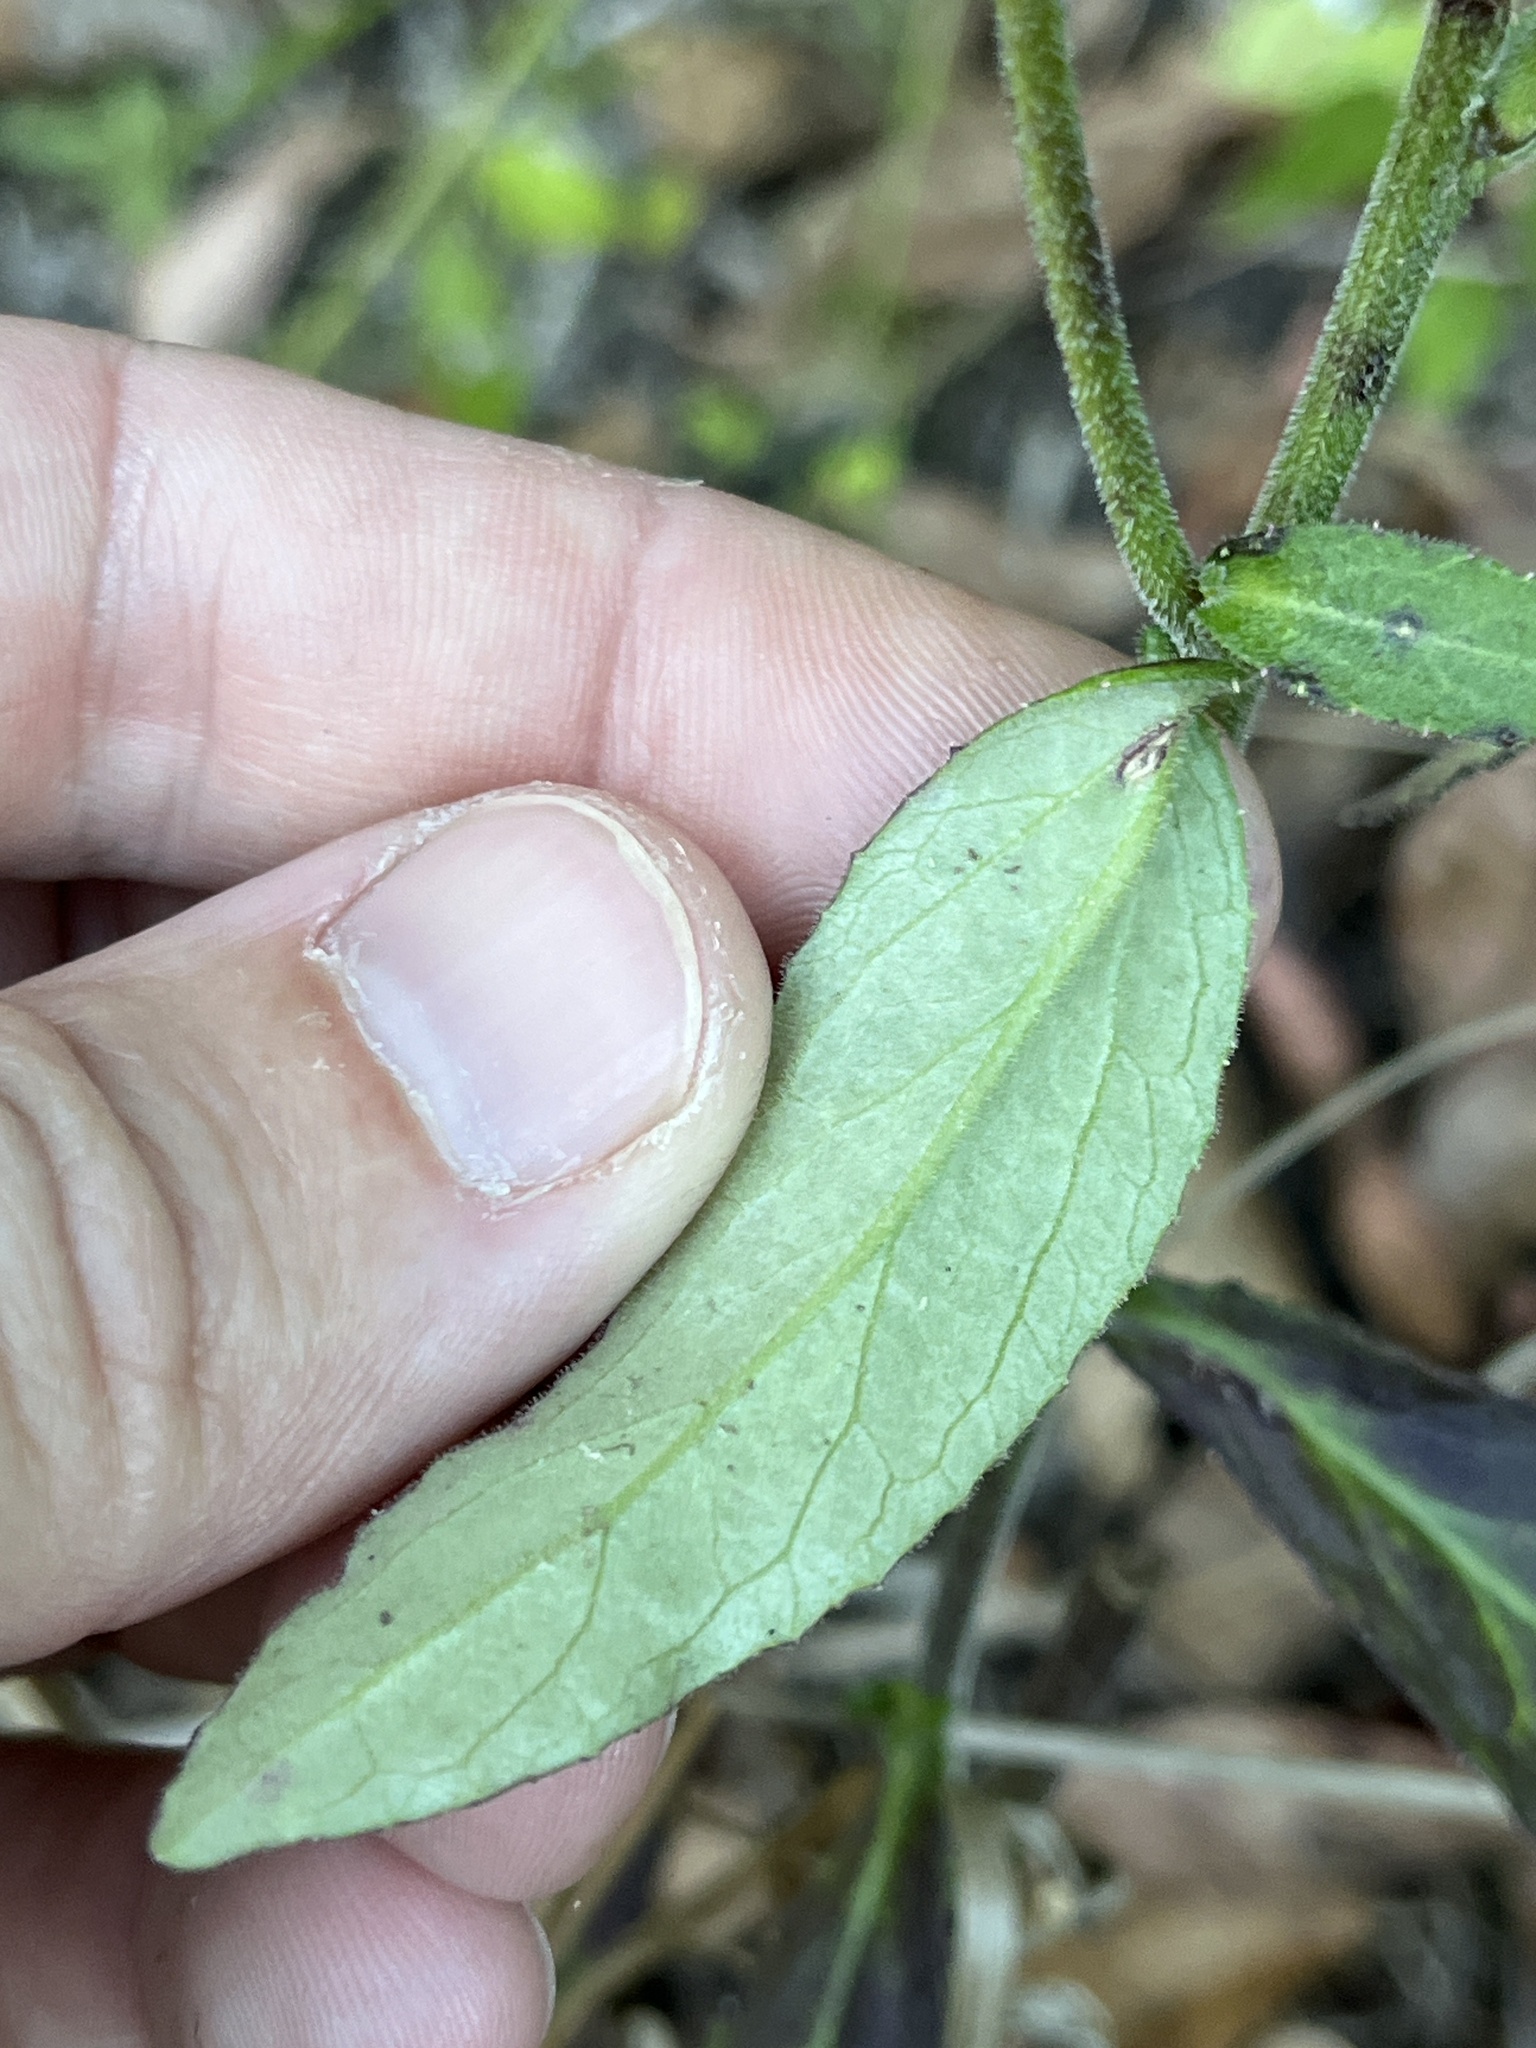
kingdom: Plantae
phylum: Tracheophyta
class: Magnoliopsida
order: Asterales
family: Campanulaceae
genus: Lobelia
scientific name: Lobelia puberula
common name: Purple dewdrop
